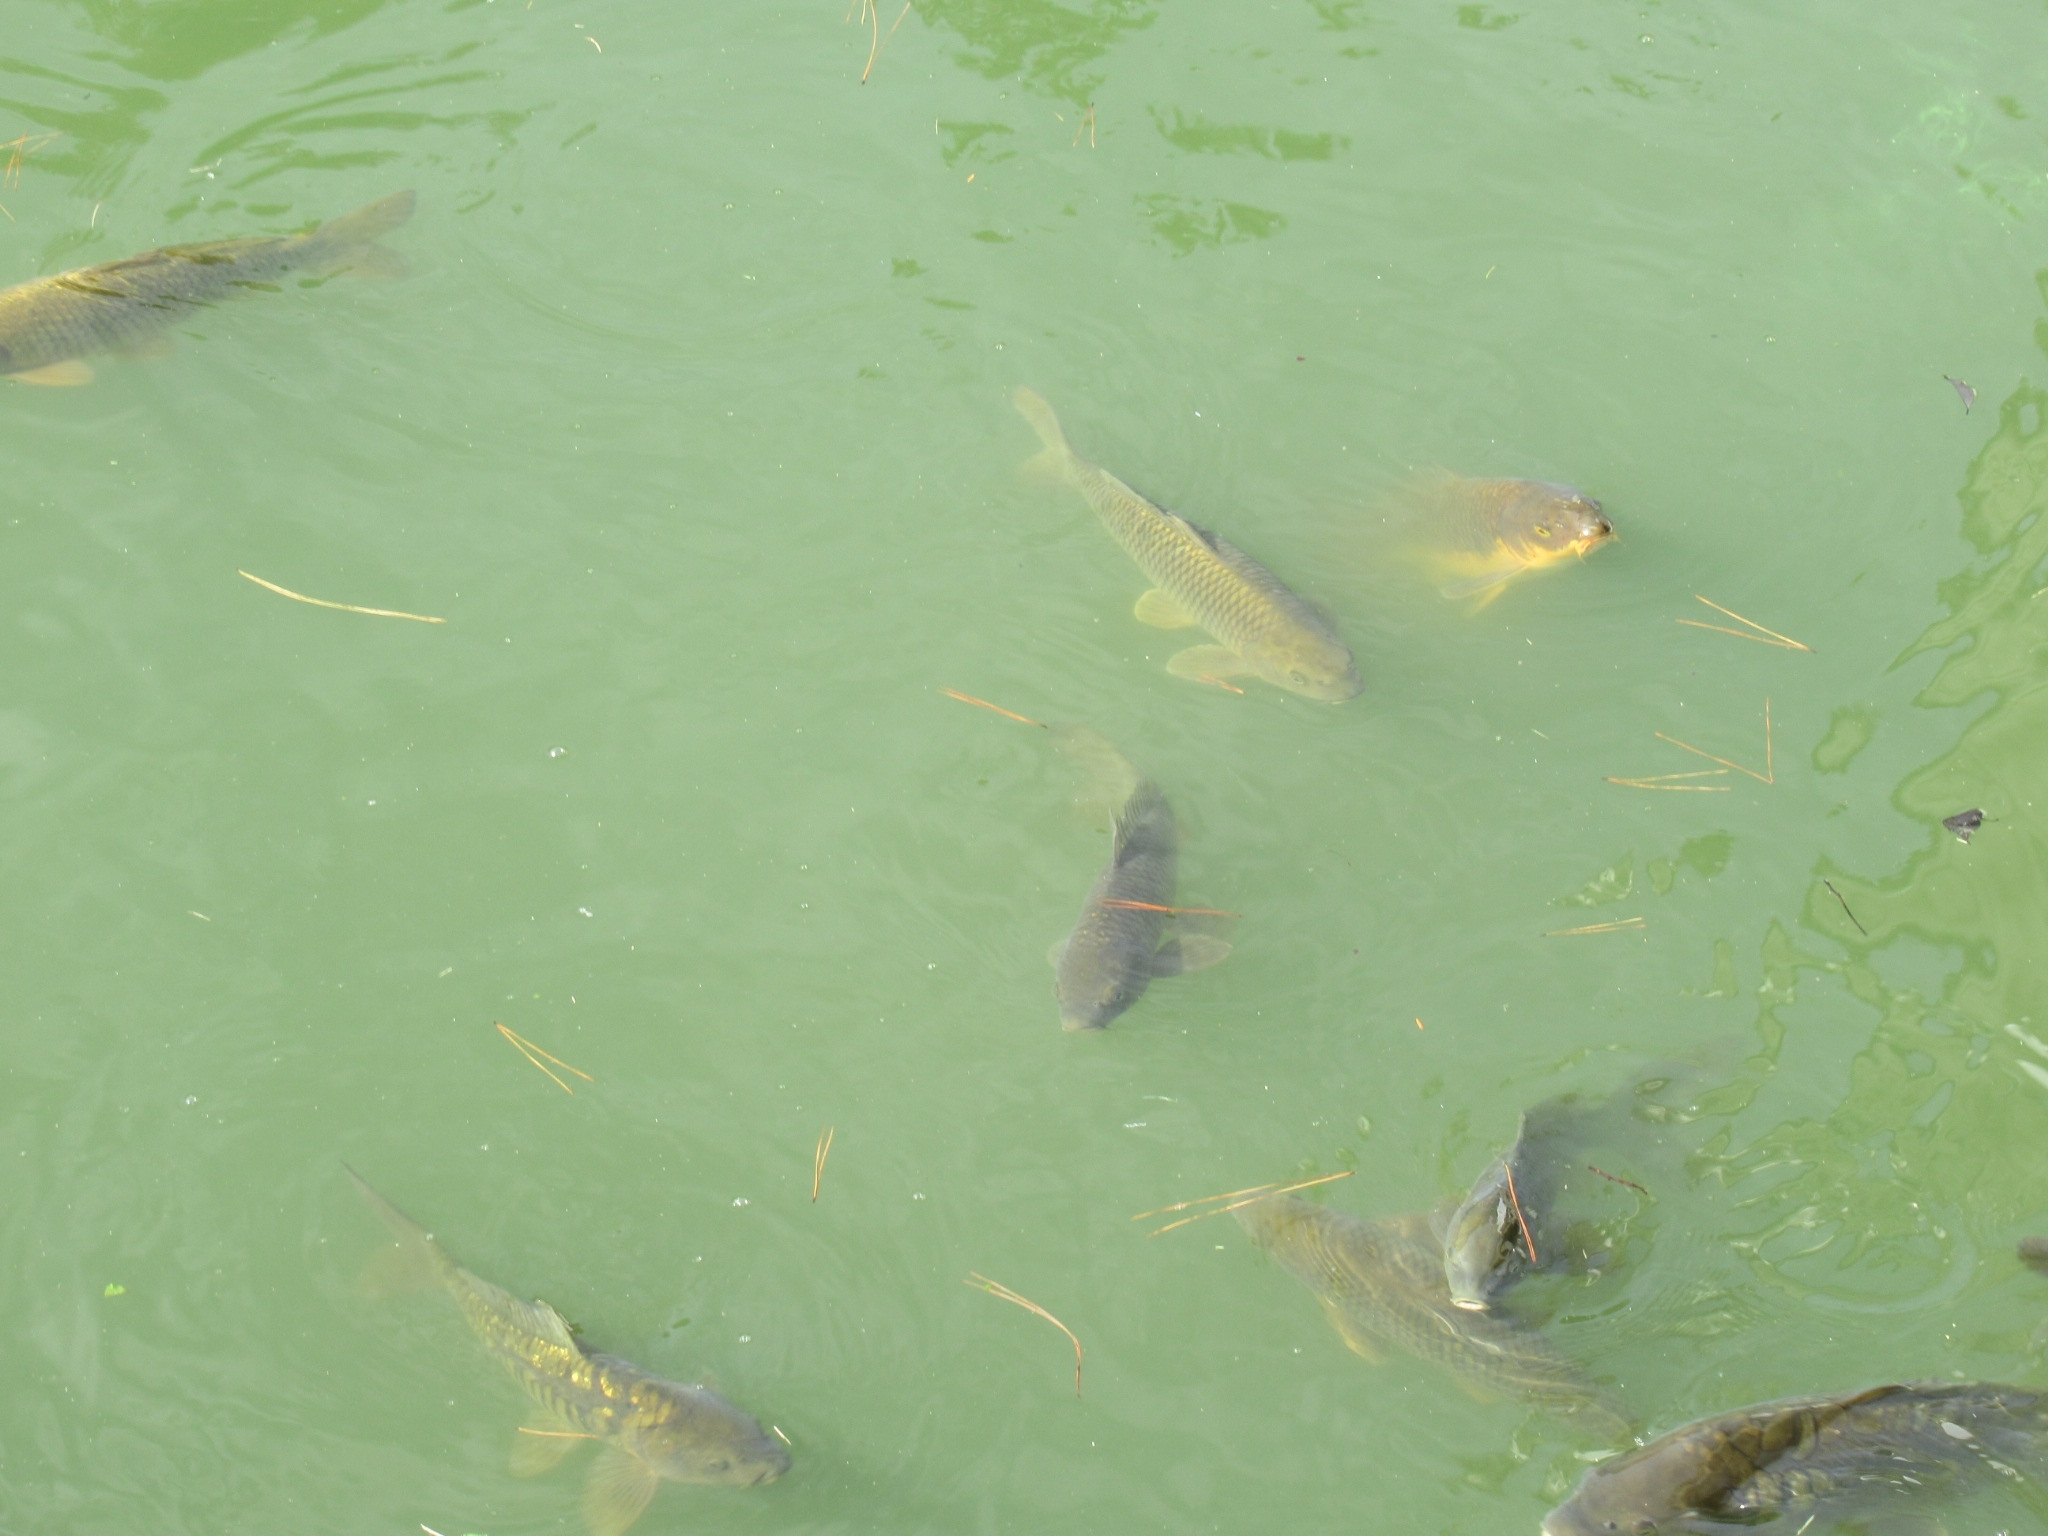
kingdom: Animalia
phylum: Chordata
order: Cypriniformes
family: Cyprinidae
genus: Cyprinus
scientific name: Cyprinus rubrofuscus
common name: Koi
